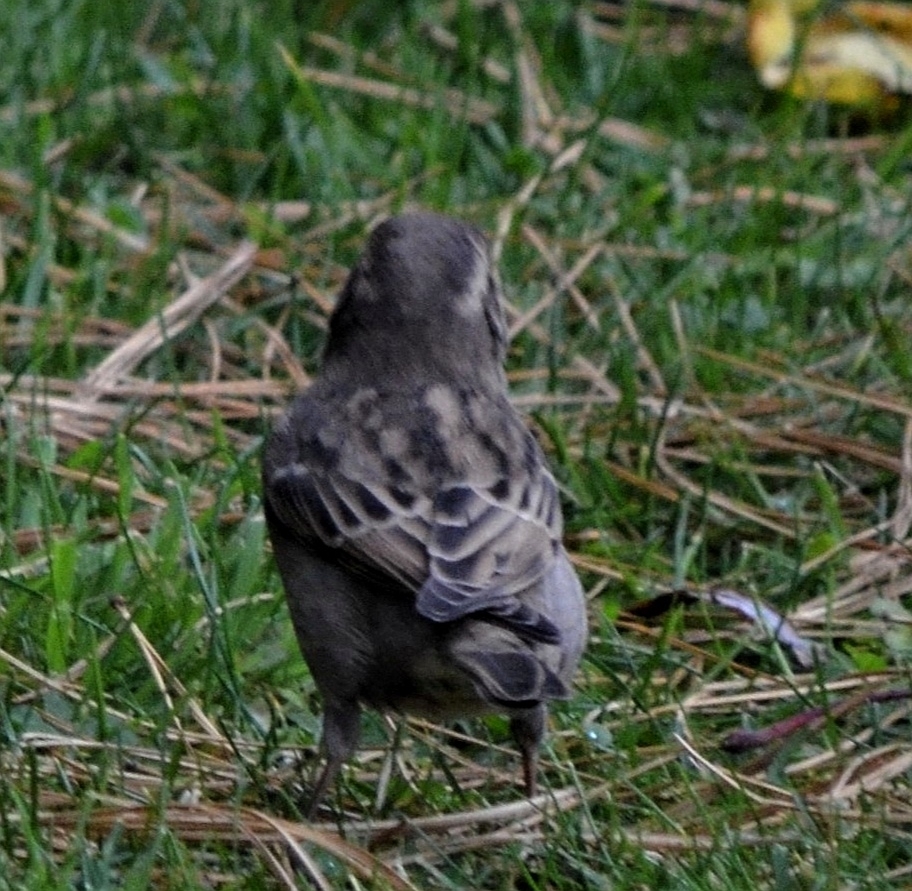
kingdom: Animalia
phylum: Chordata
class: Aves
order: Passeriformes
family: Passeridae
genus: Passer
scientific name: Passer domesticus
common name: House sparrow
